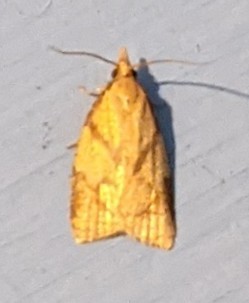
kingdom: Animalia
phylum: Arthropoda
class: Insecta
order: Lepidoptera
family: Tortricidae
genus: Cenopis
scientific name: Cenopis reticulatana
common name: Reticulated fruitworm moth
